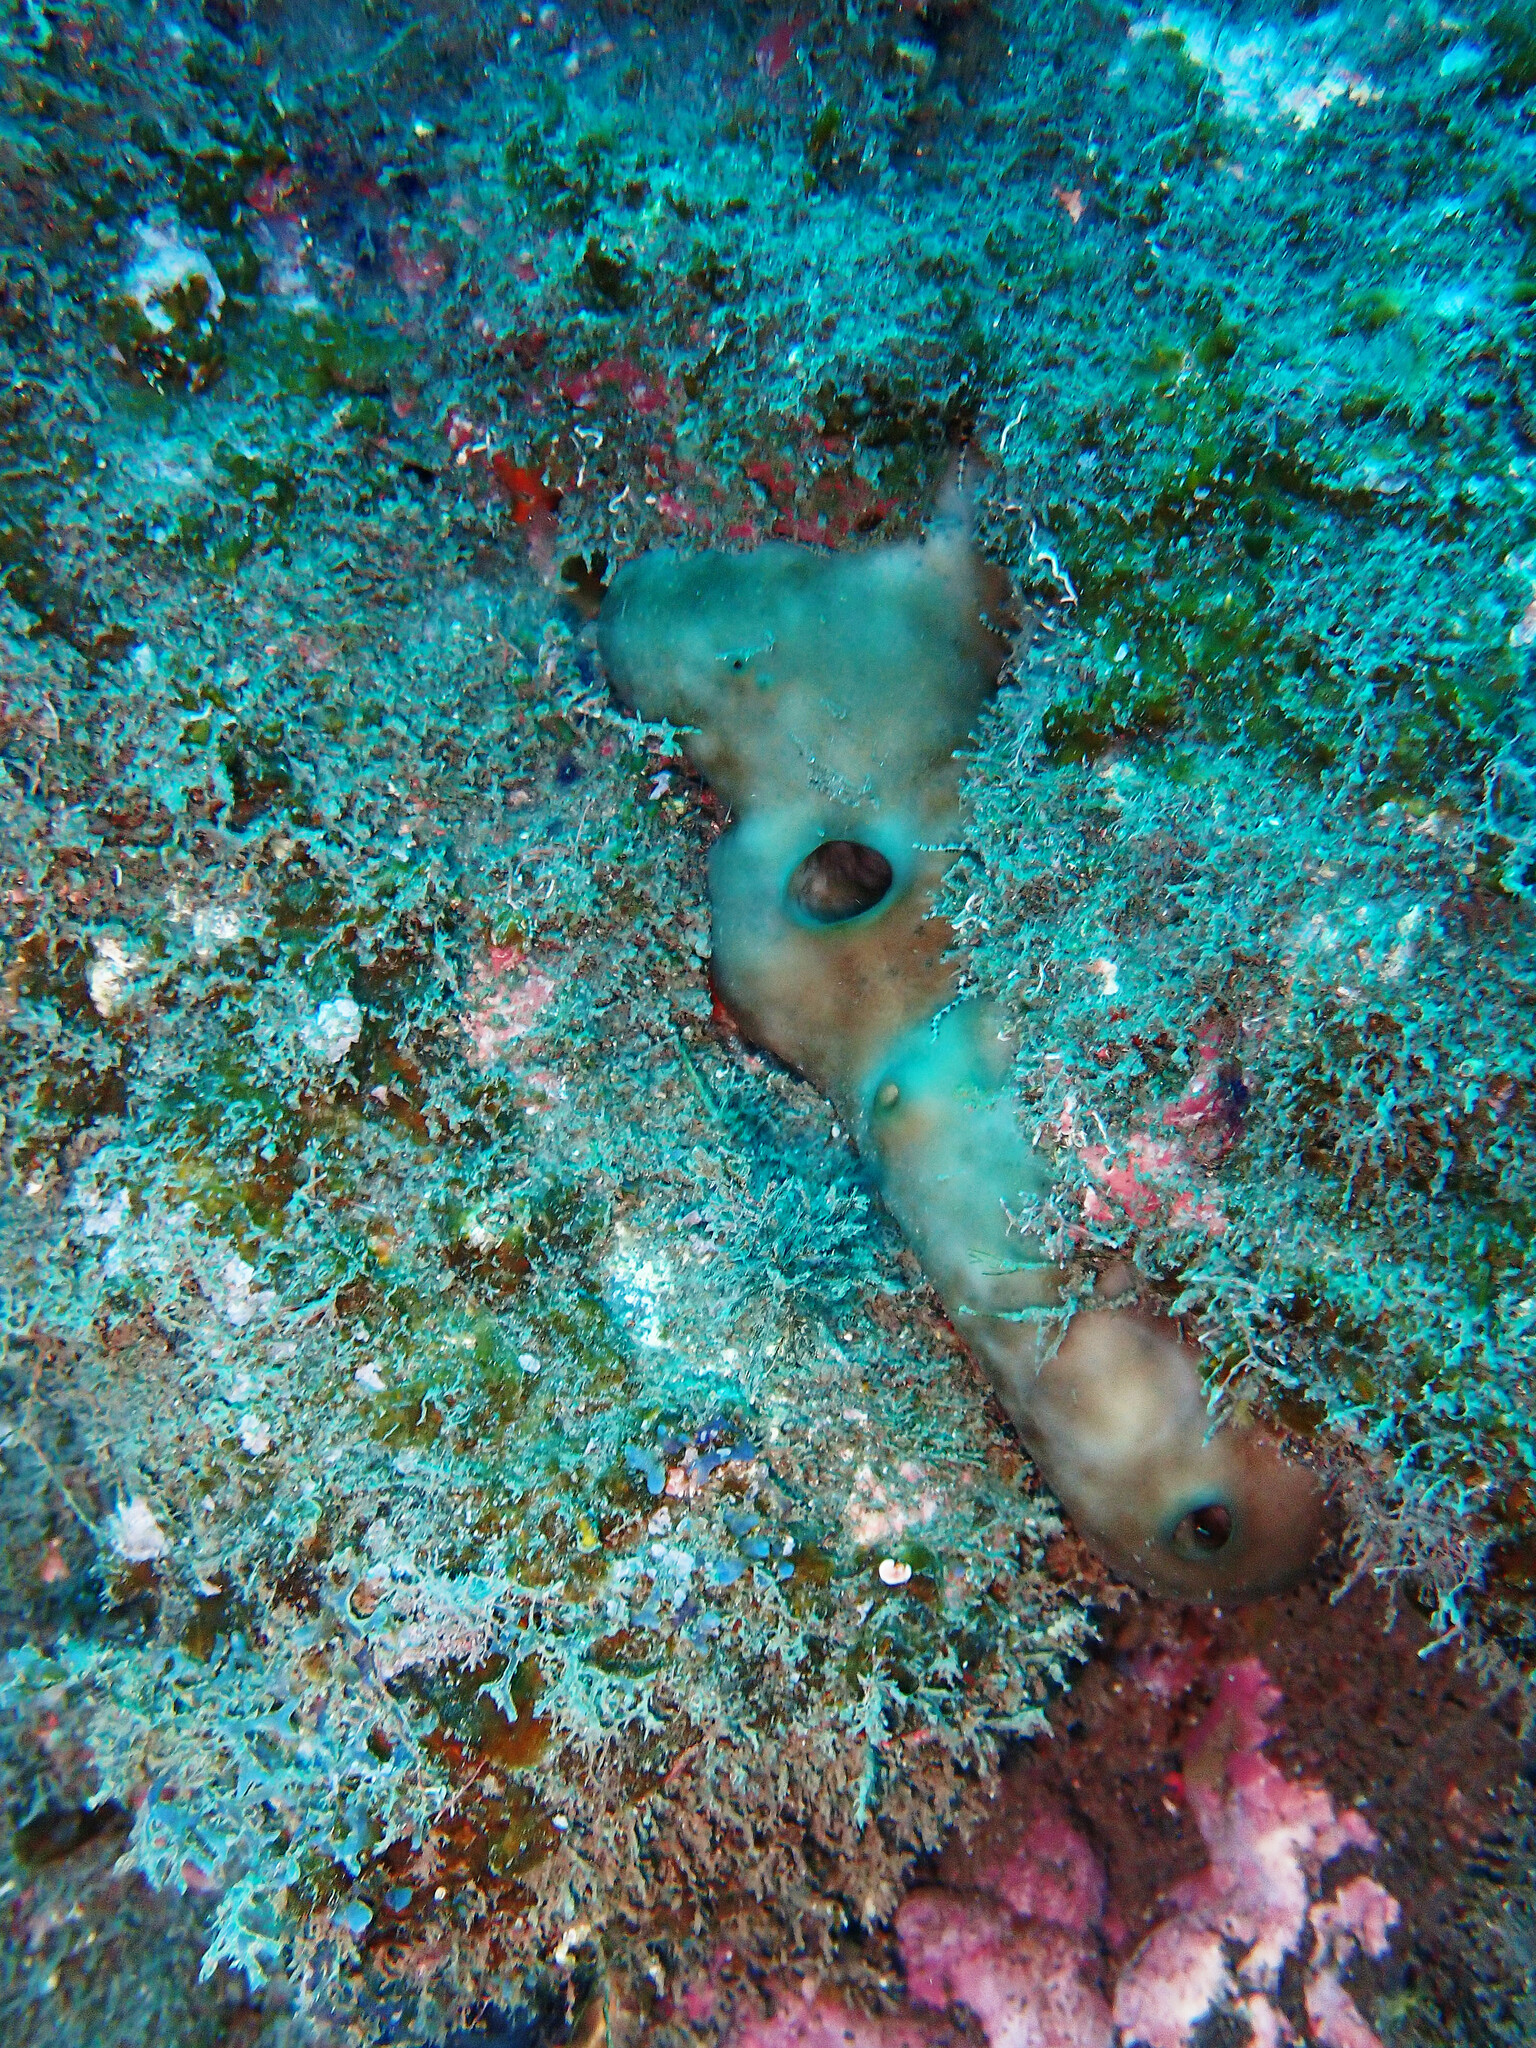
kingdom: Animalia
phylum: Porifera
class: Demospongiae
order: Chondrosiida
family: Chondrosiidae
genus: Chondrosia
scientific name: Chondrosia reniformis
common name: Chicken liver sponge
